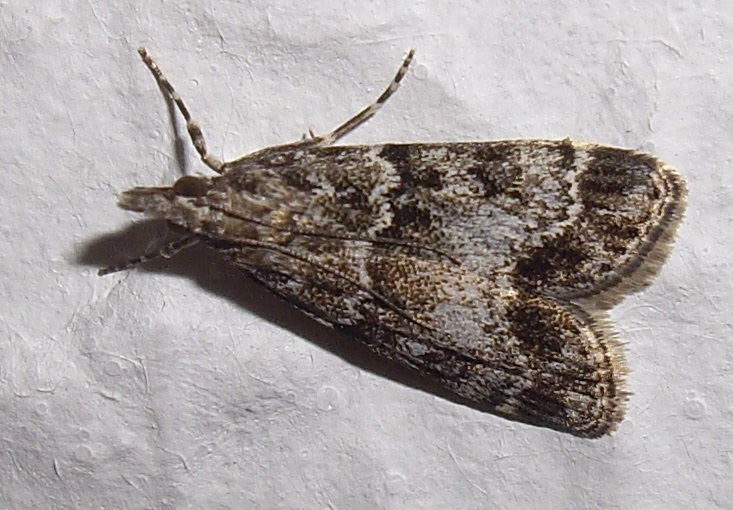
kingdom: Animalia
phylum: Arthropoda
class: Insecta
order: Lepidoptera
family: Crambidae
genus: Eudonia
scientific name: Eudonia mercurella
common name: Small grey
